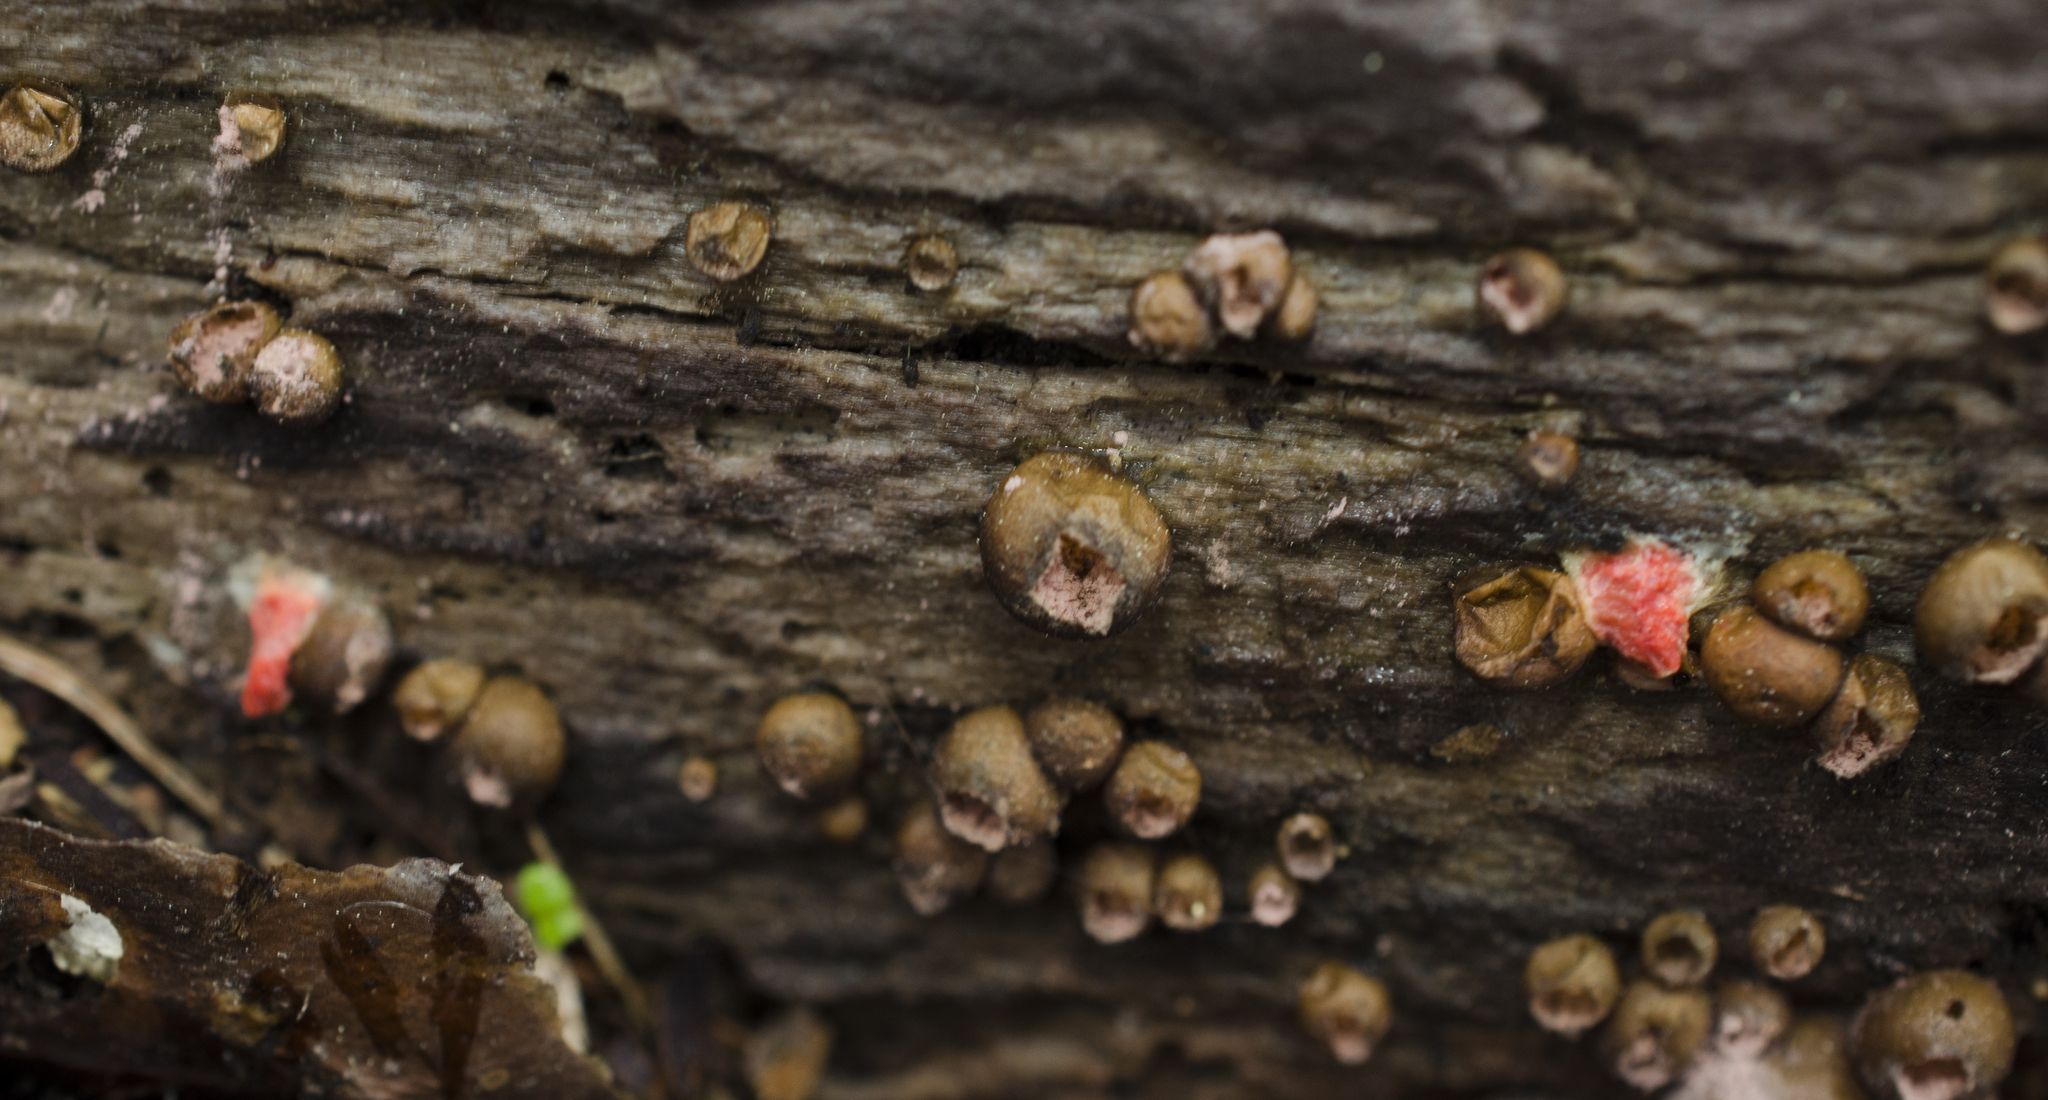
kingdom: Protozoa
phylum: Mycetozoa
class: Myxomycetes
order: Cribrariales
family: Tubiferaceae
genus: Lycogala
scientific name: Lycogala epidendrum
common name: Wolf's milk
